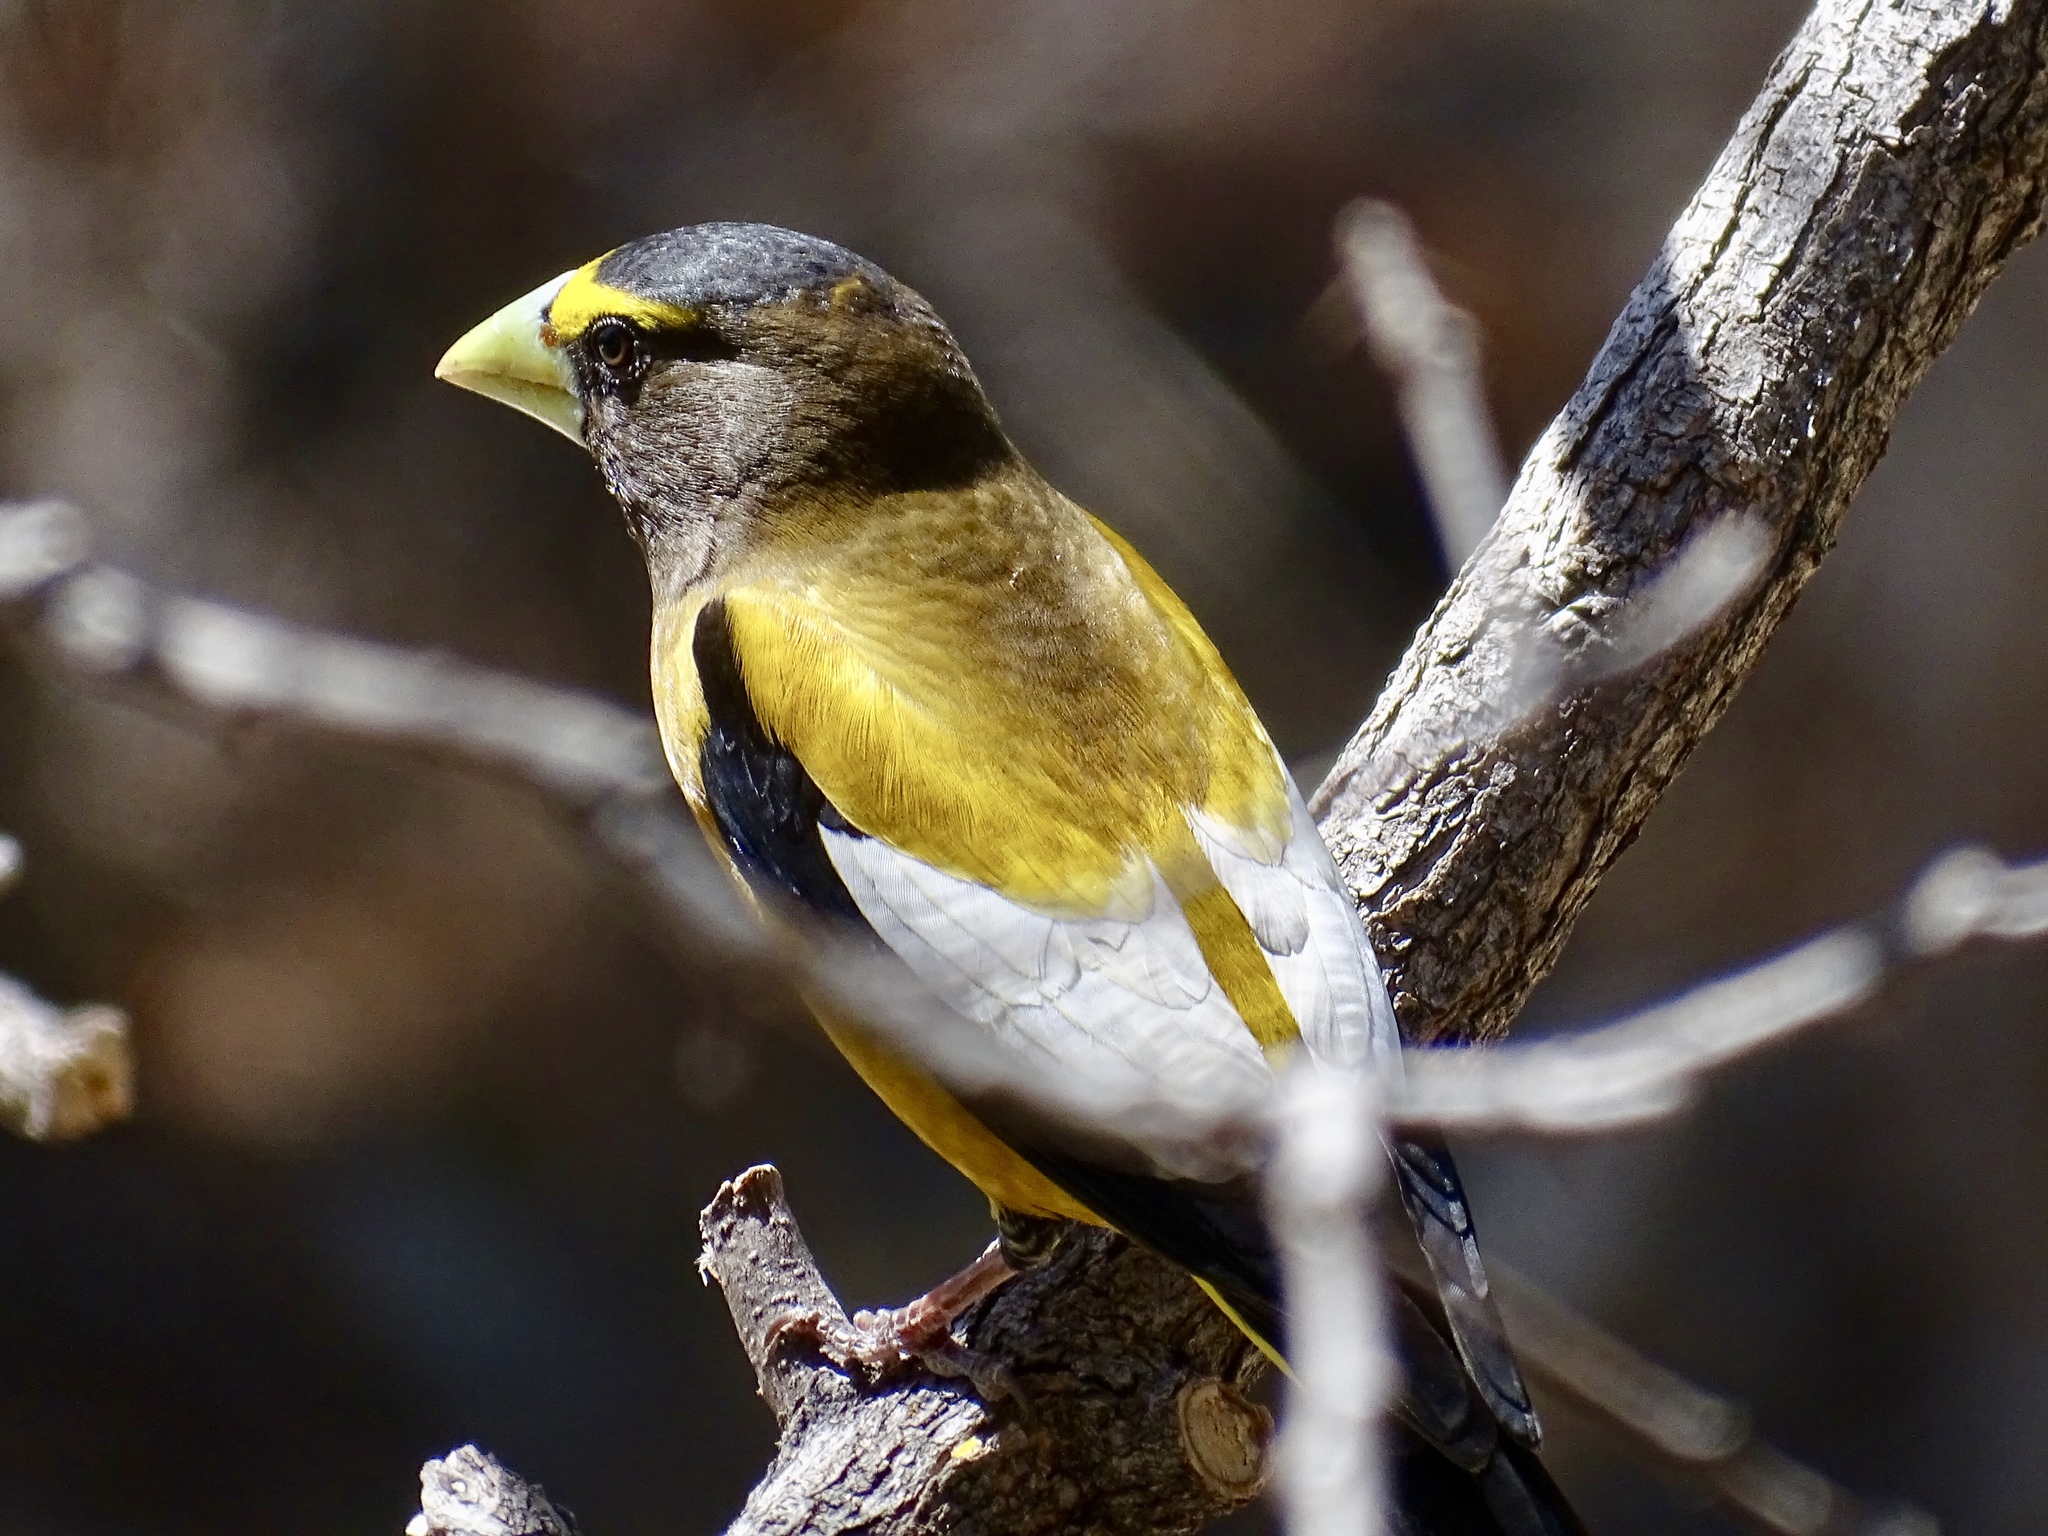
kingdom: Animalia
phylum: Chordata
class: Aves
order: Passeriformes
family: Fringillidae
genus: Hesperiphona
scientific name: Hesperiphona vespertina
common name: Evening grosbeak
